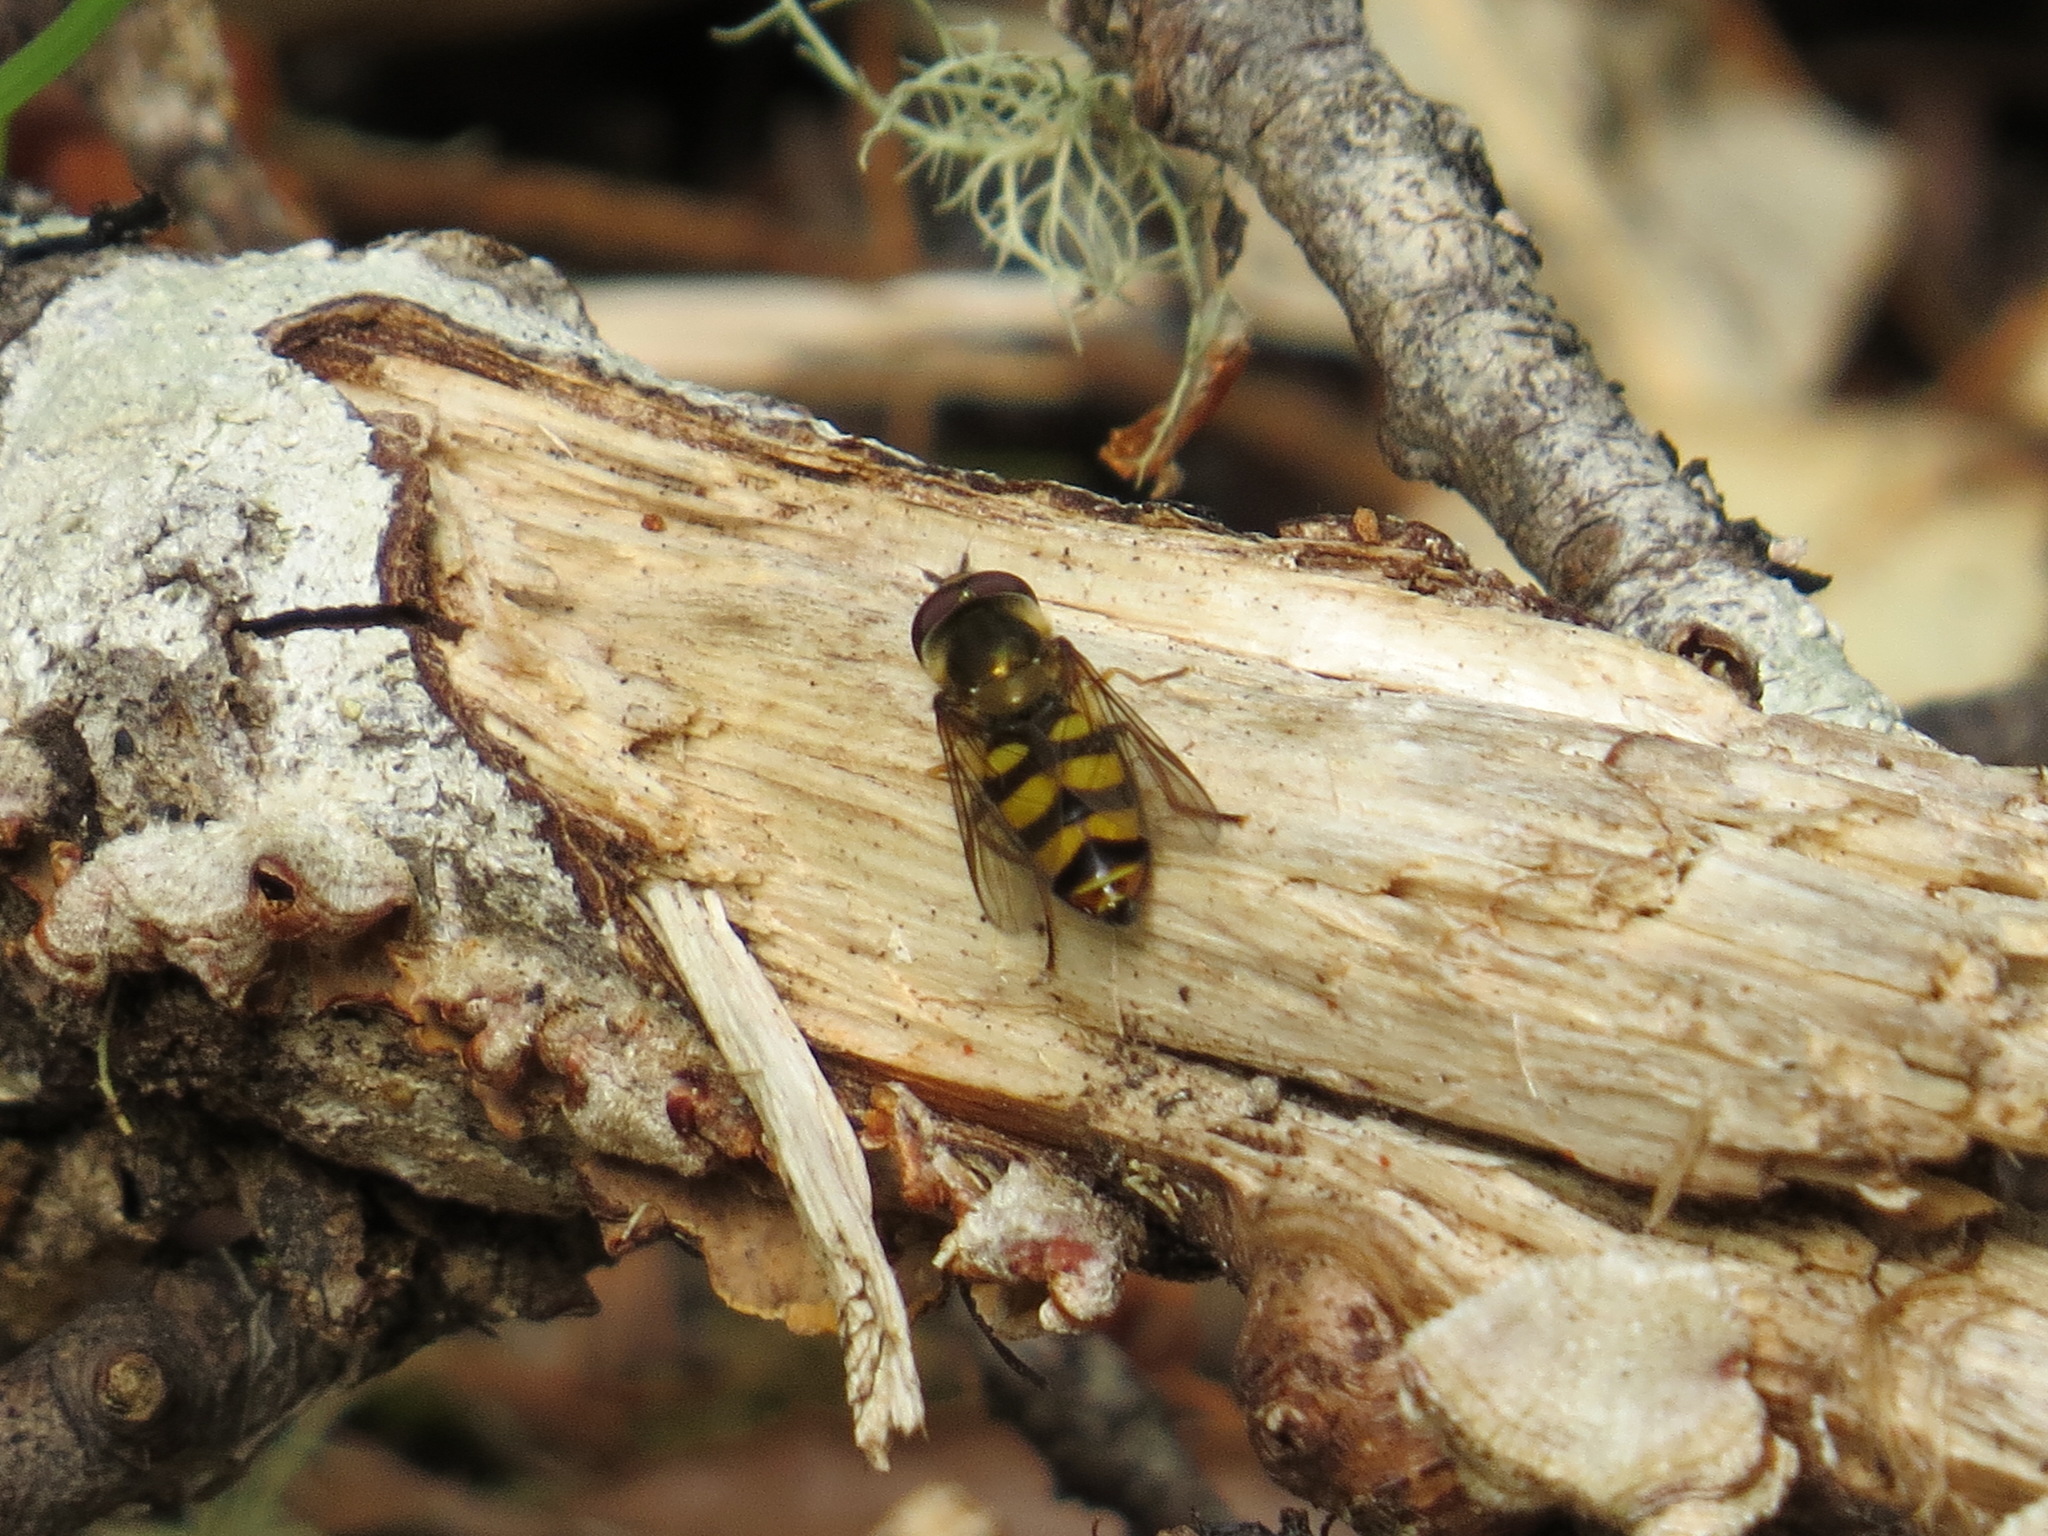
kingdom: Animalia
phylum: Arthropoda
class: Insecta
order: Diptera
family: Syrphidae
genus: Eupeodes
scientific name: Eupeodes fumipennis
